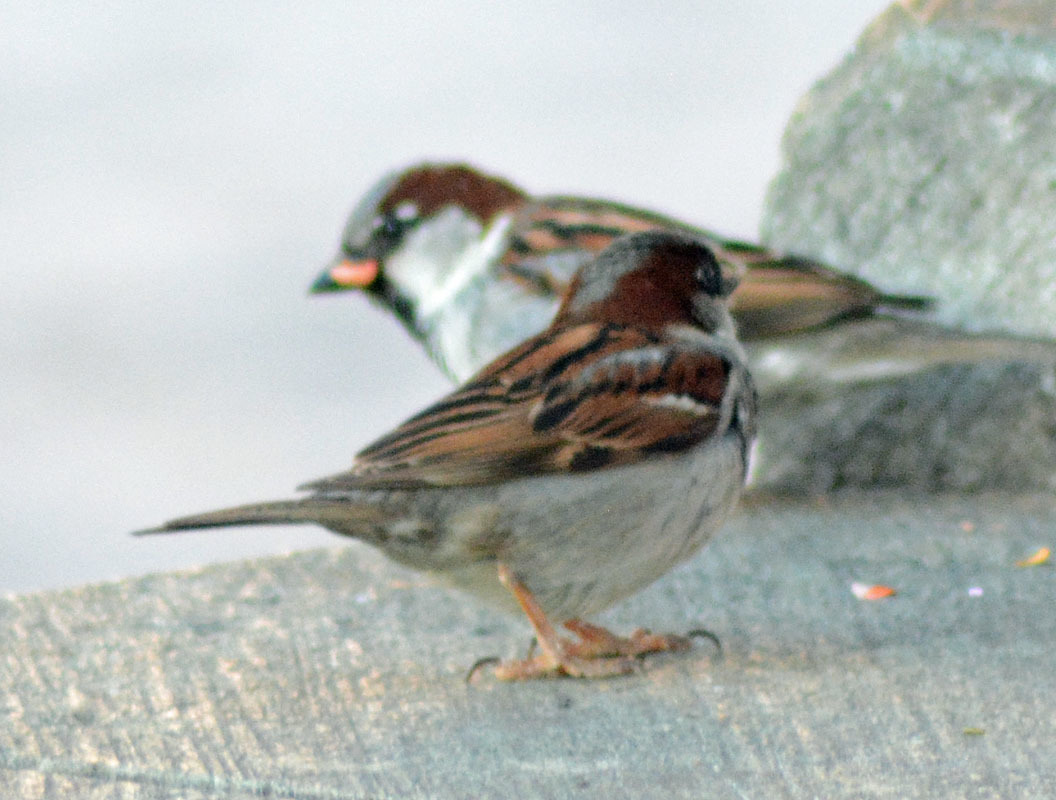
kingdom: Animalia
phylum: Chordata
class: Aves
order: Passeriformes
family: Passeridae
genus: Passer
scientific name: Passer domesticus
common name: House sparrow
